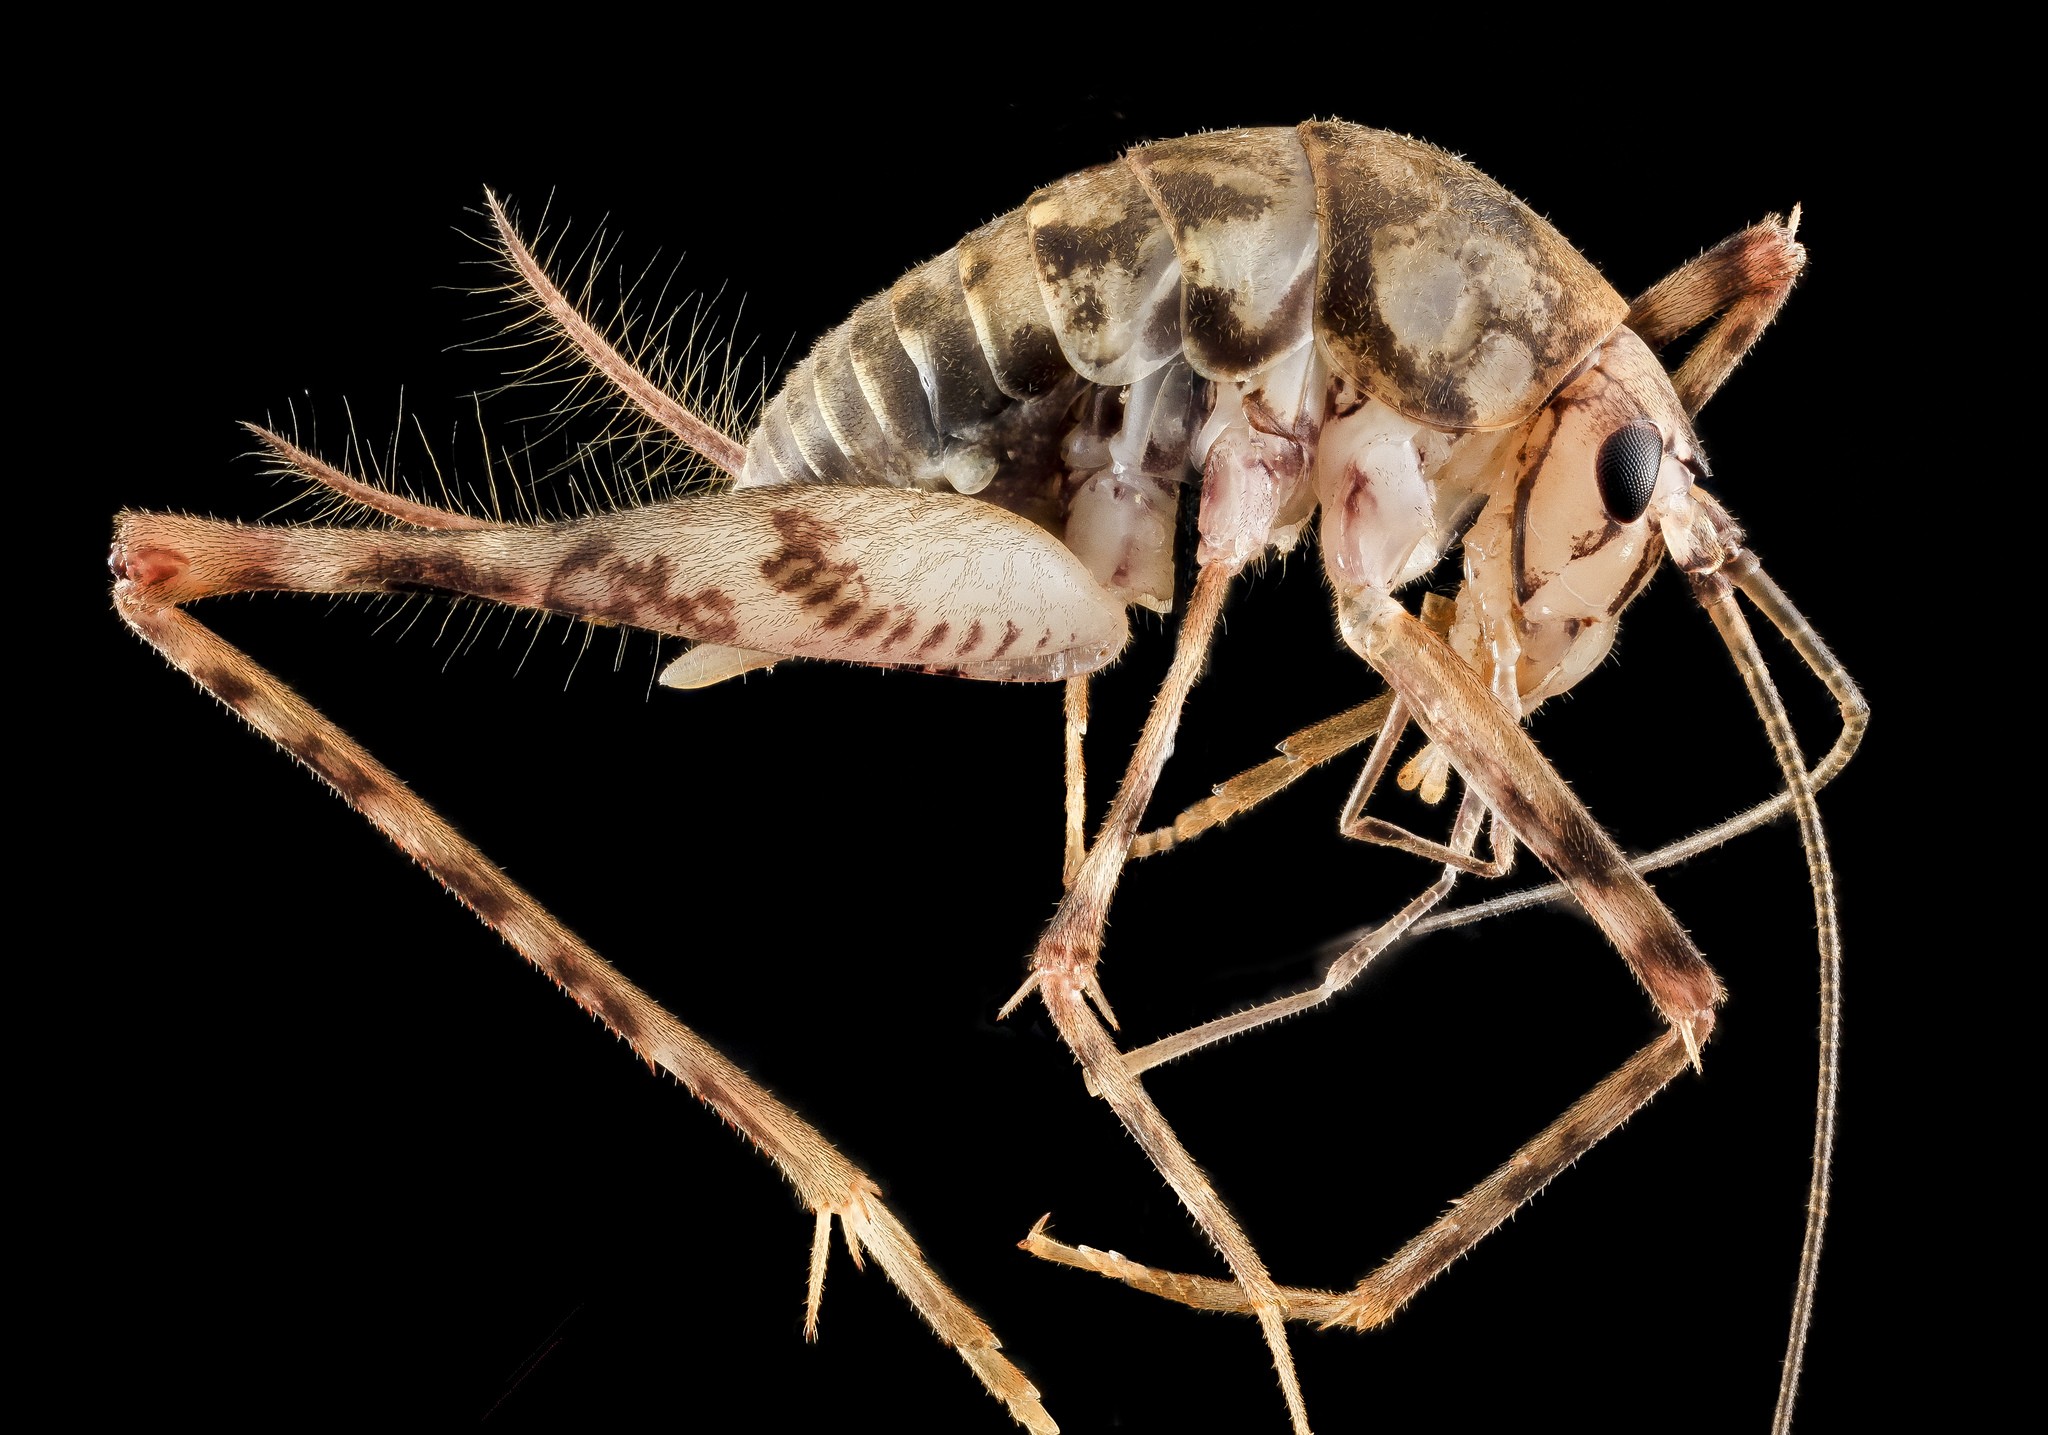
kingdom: Animalia
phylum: Arthropoda
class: Insecta
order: Orthoptera
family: Rhaphidophoridae
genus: Tachycines
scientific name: Tachycines asynamorus
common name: Greenhouse camel cricket
